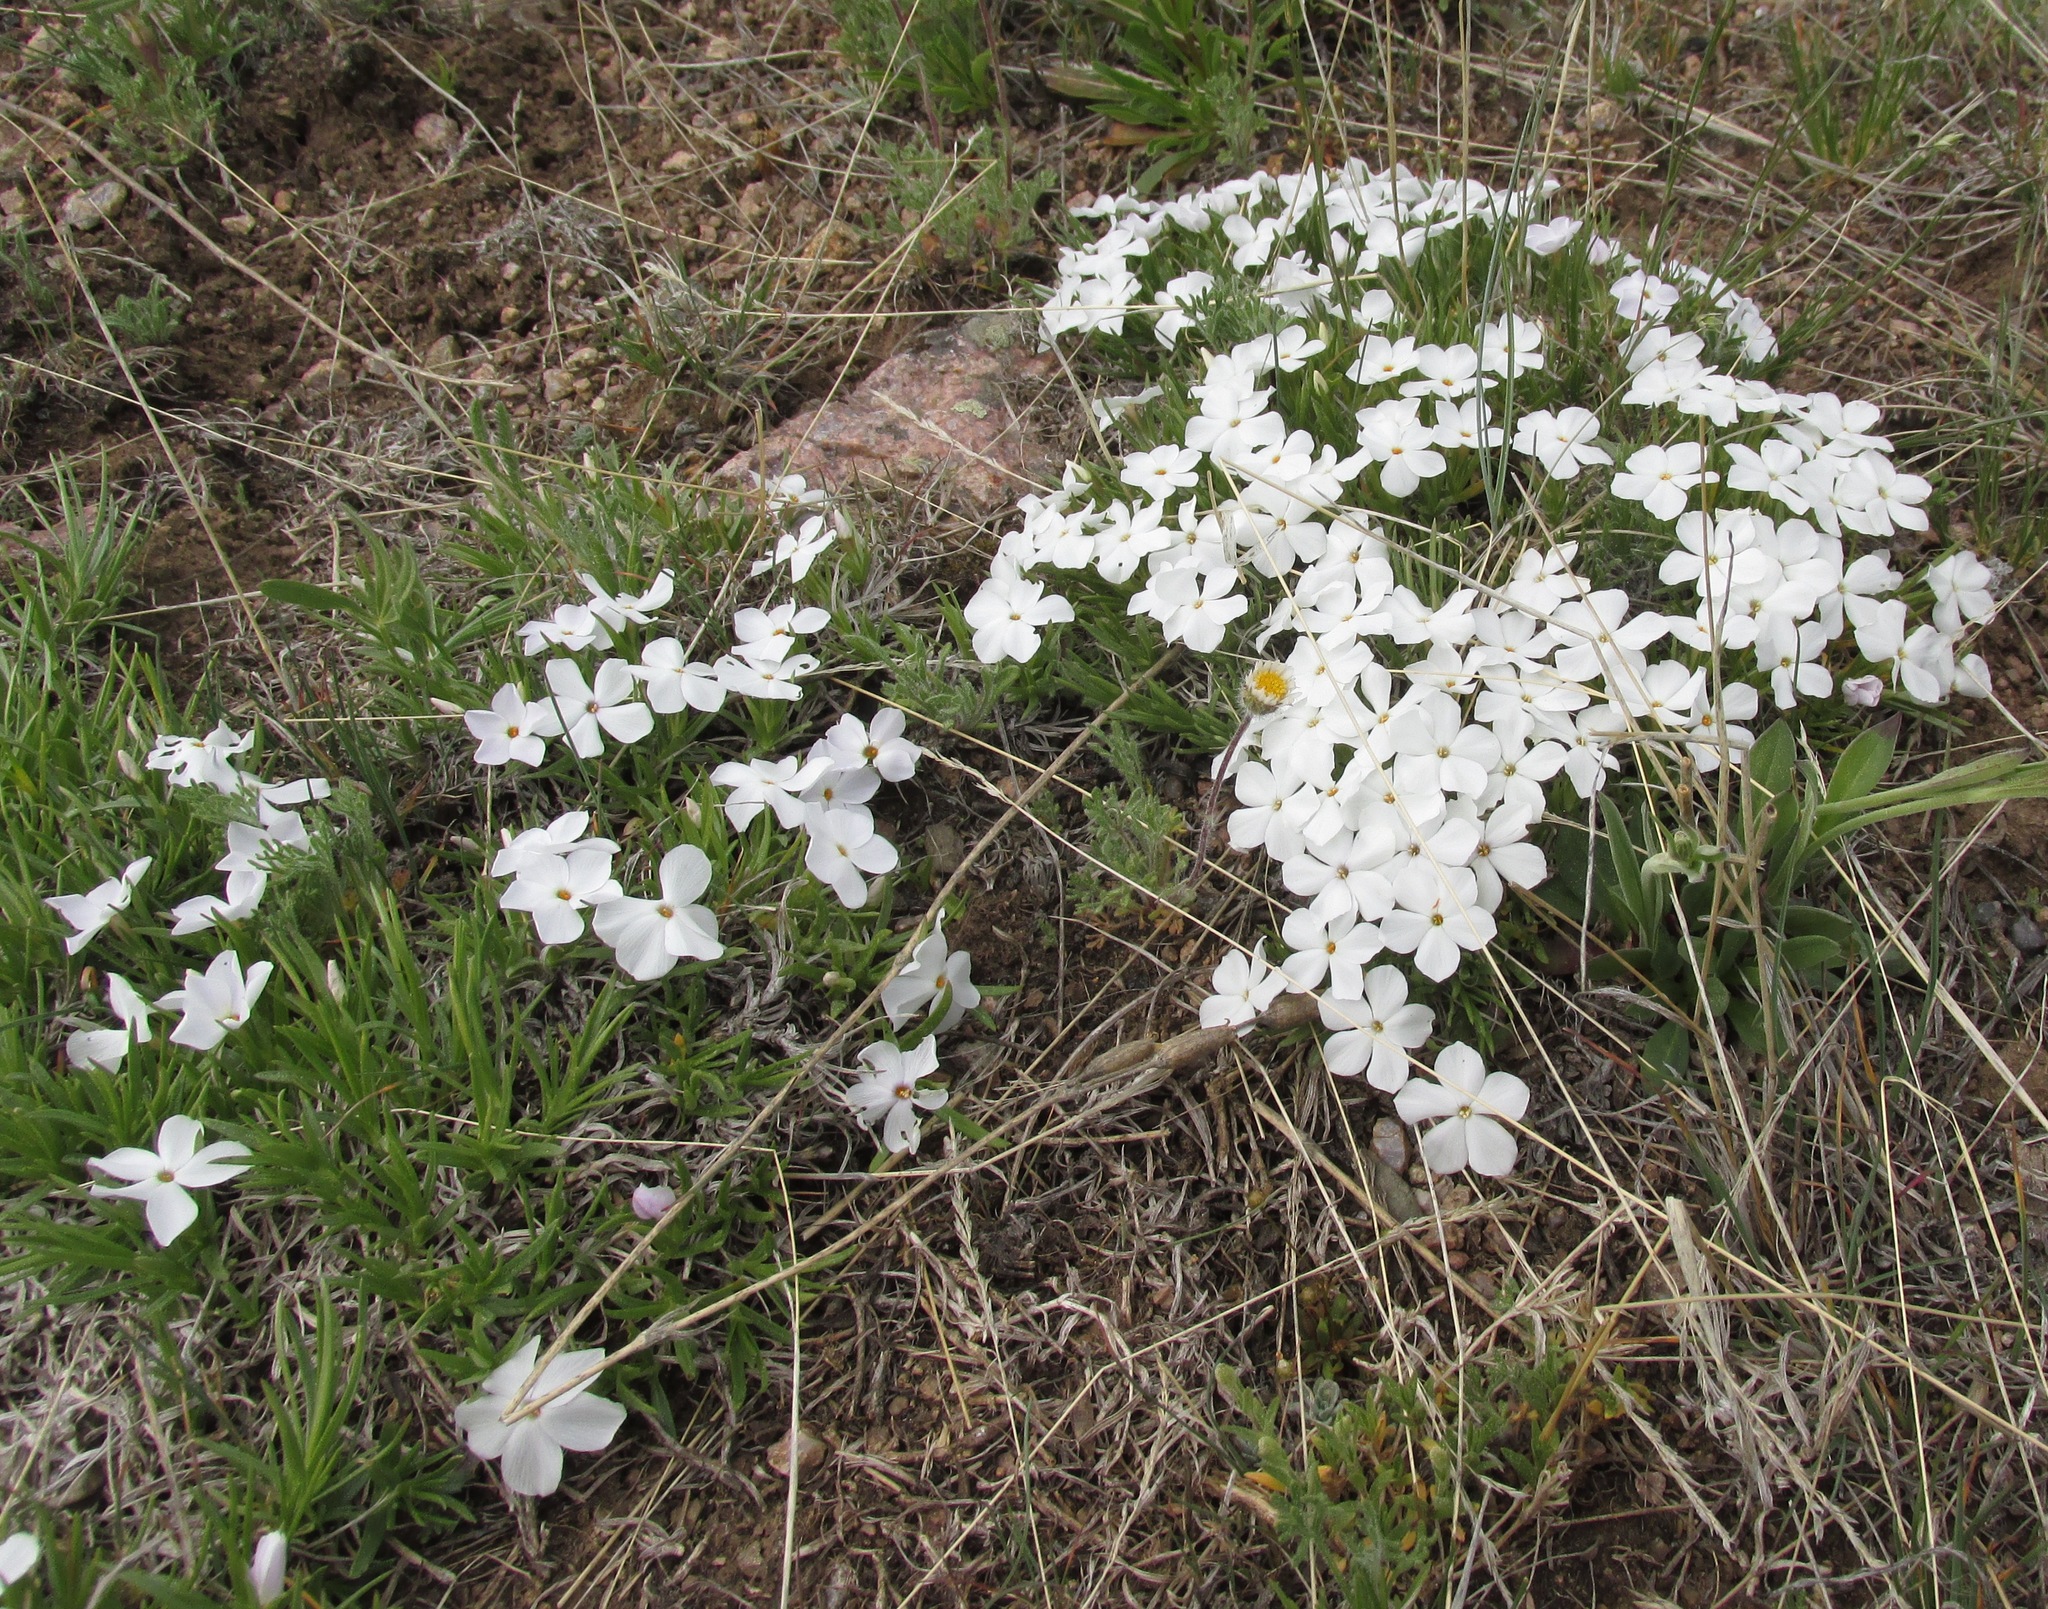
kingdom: Plantae
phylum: Tracheophyta
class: Magnoliopsida
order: Ericales
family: Polemoniaceae
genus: Phlox
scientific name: Phlox multiflora
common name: Rocky mountain phlox
